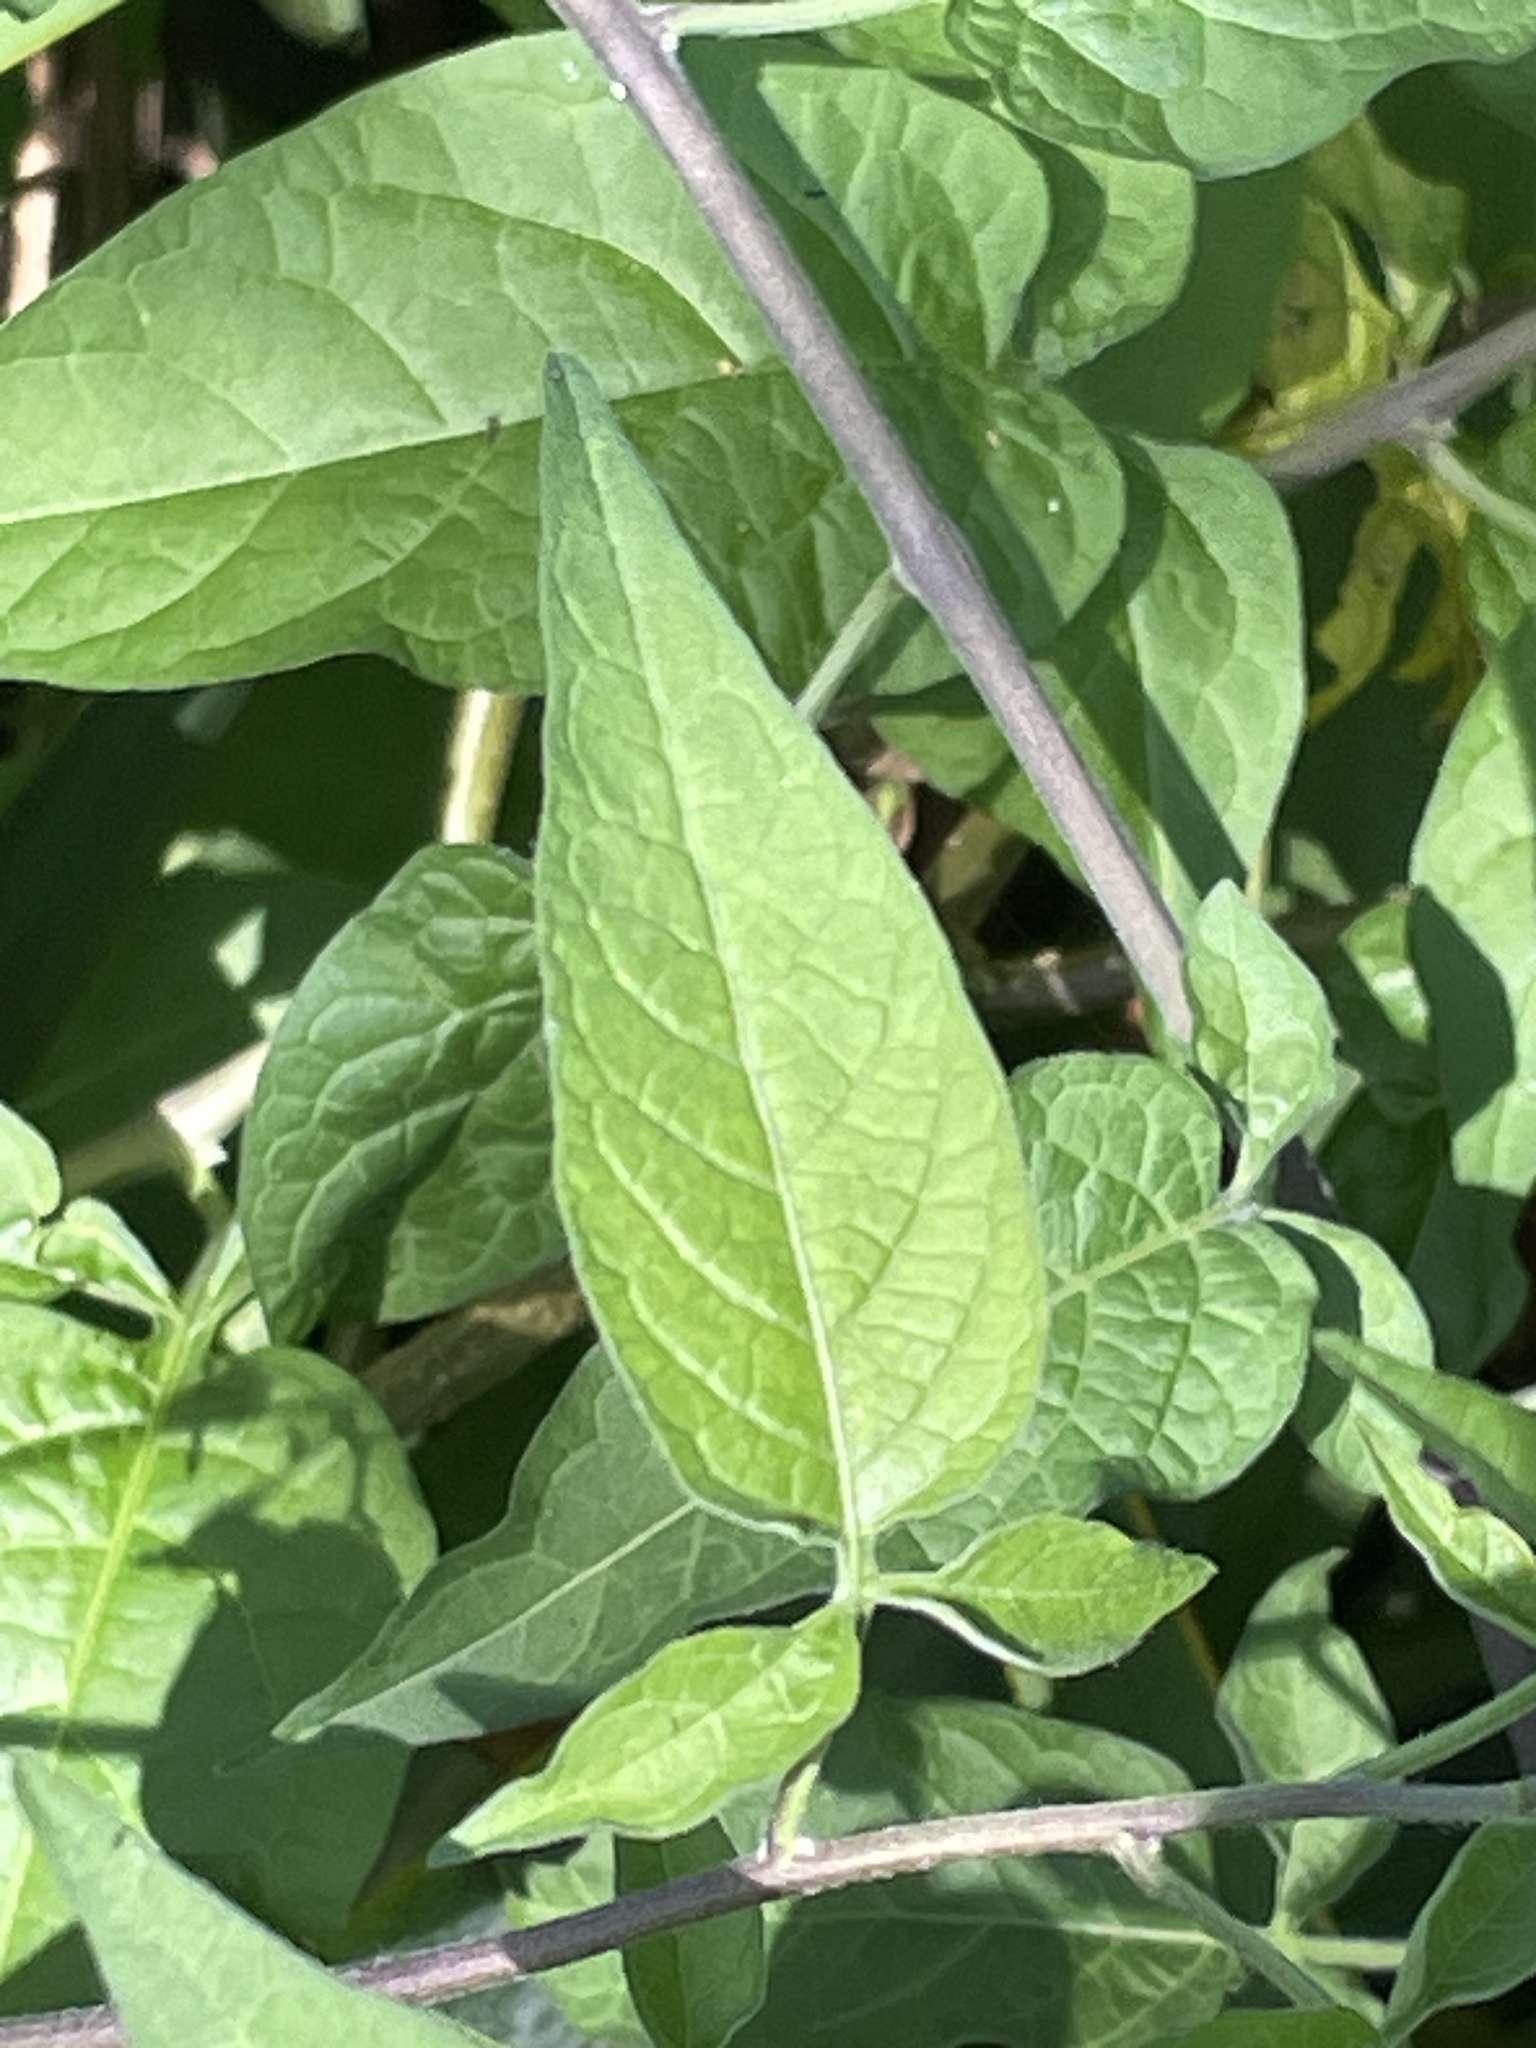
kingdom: Plantae
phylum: Tracheophyta
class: Magnoliopsida
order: Solanales
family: Solanaceae
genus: Solanum
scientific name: Solanum dulcamara
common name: Climbing nightshade
